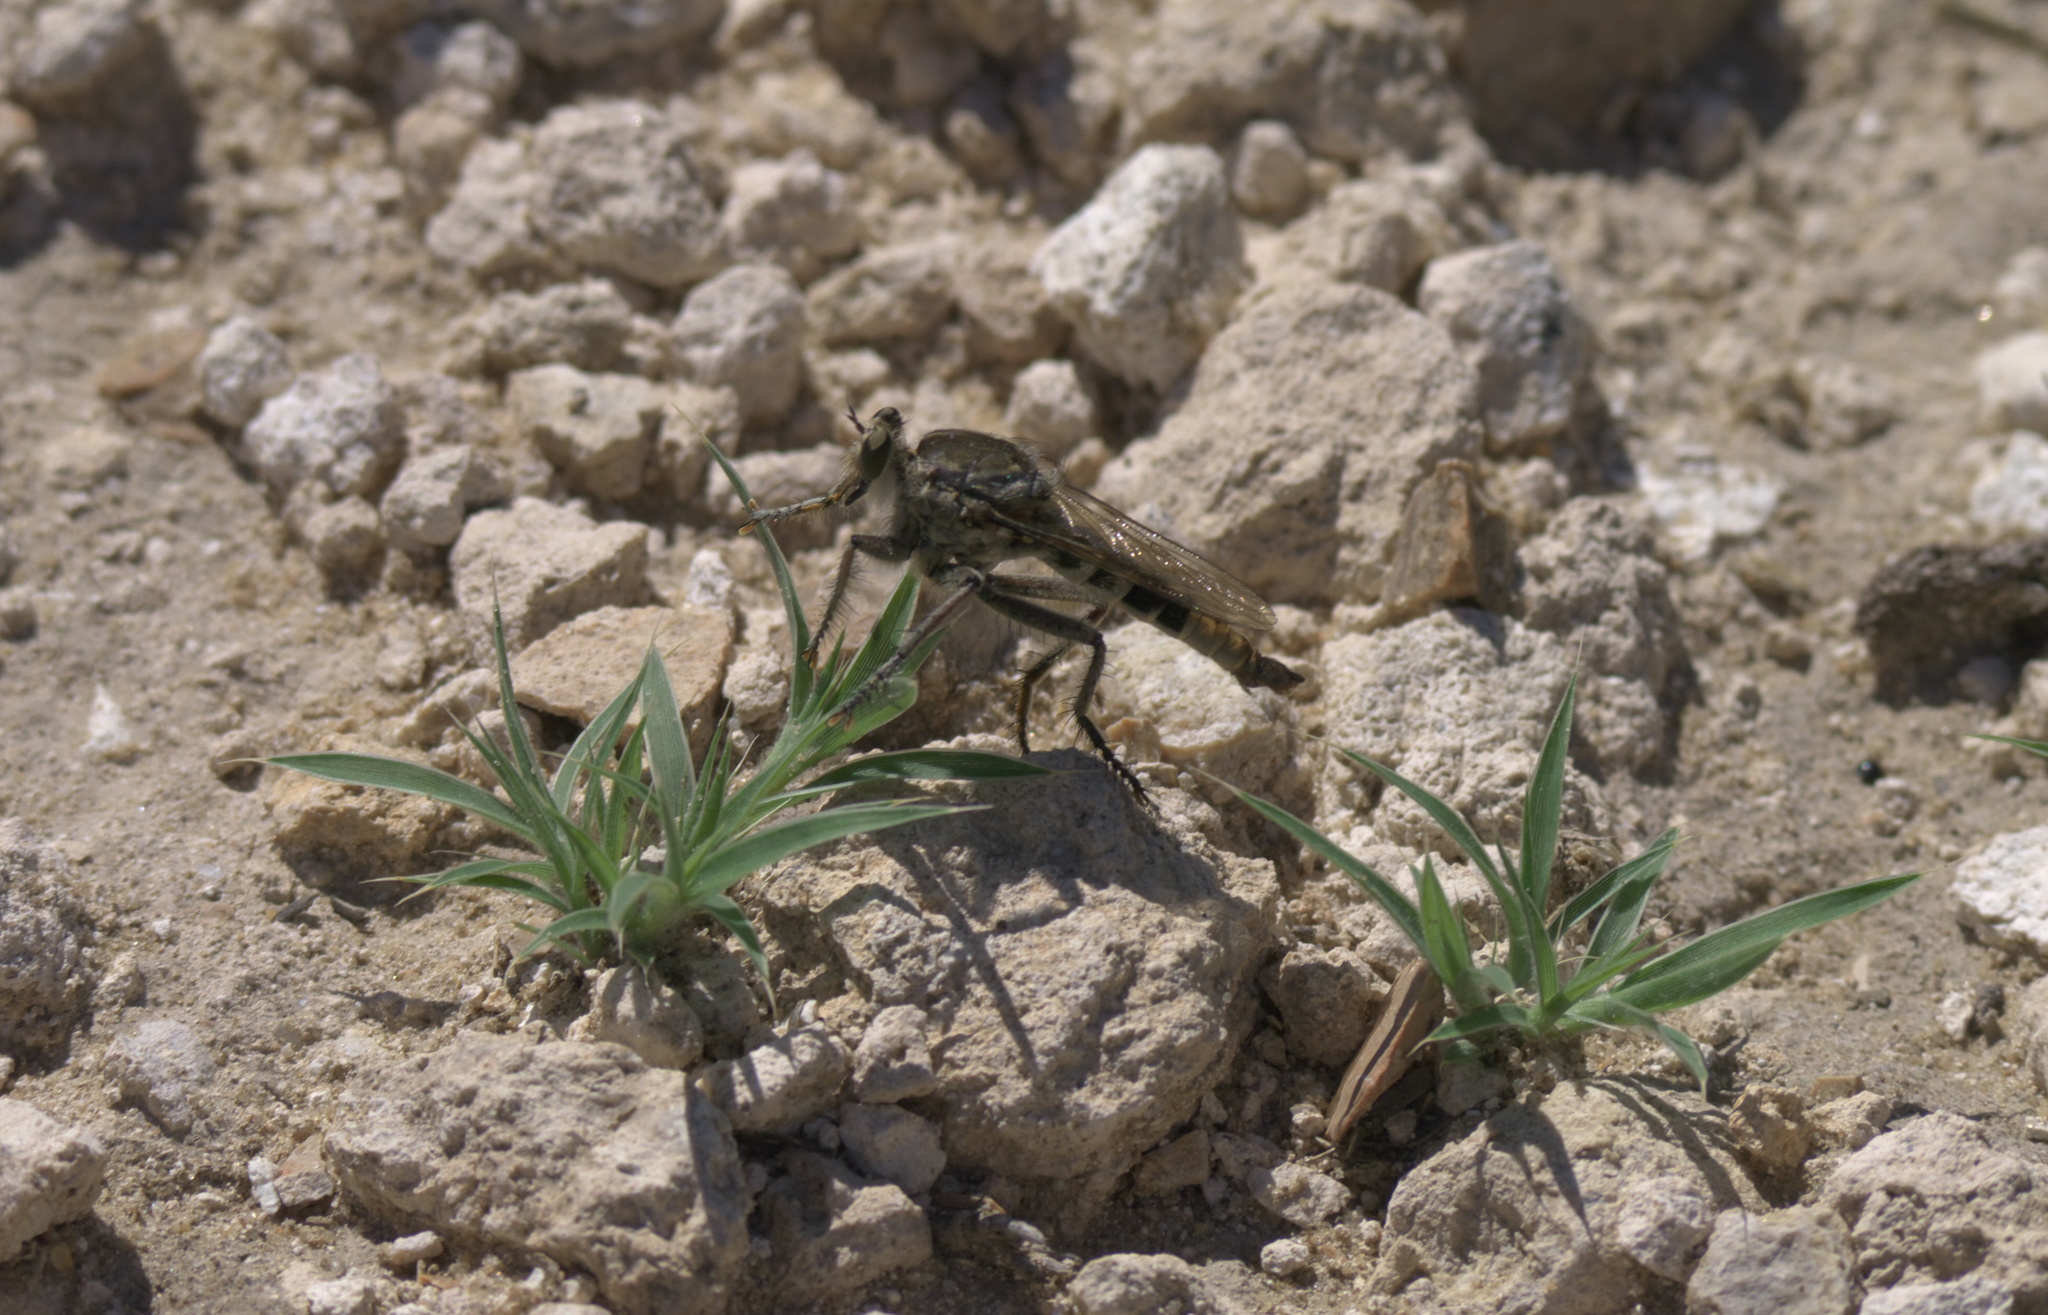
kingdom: Animalia
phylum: Arthropoda
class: Insecta
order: Diptera
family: Asilidae
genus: Triorla
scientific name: Triorla interrupta
